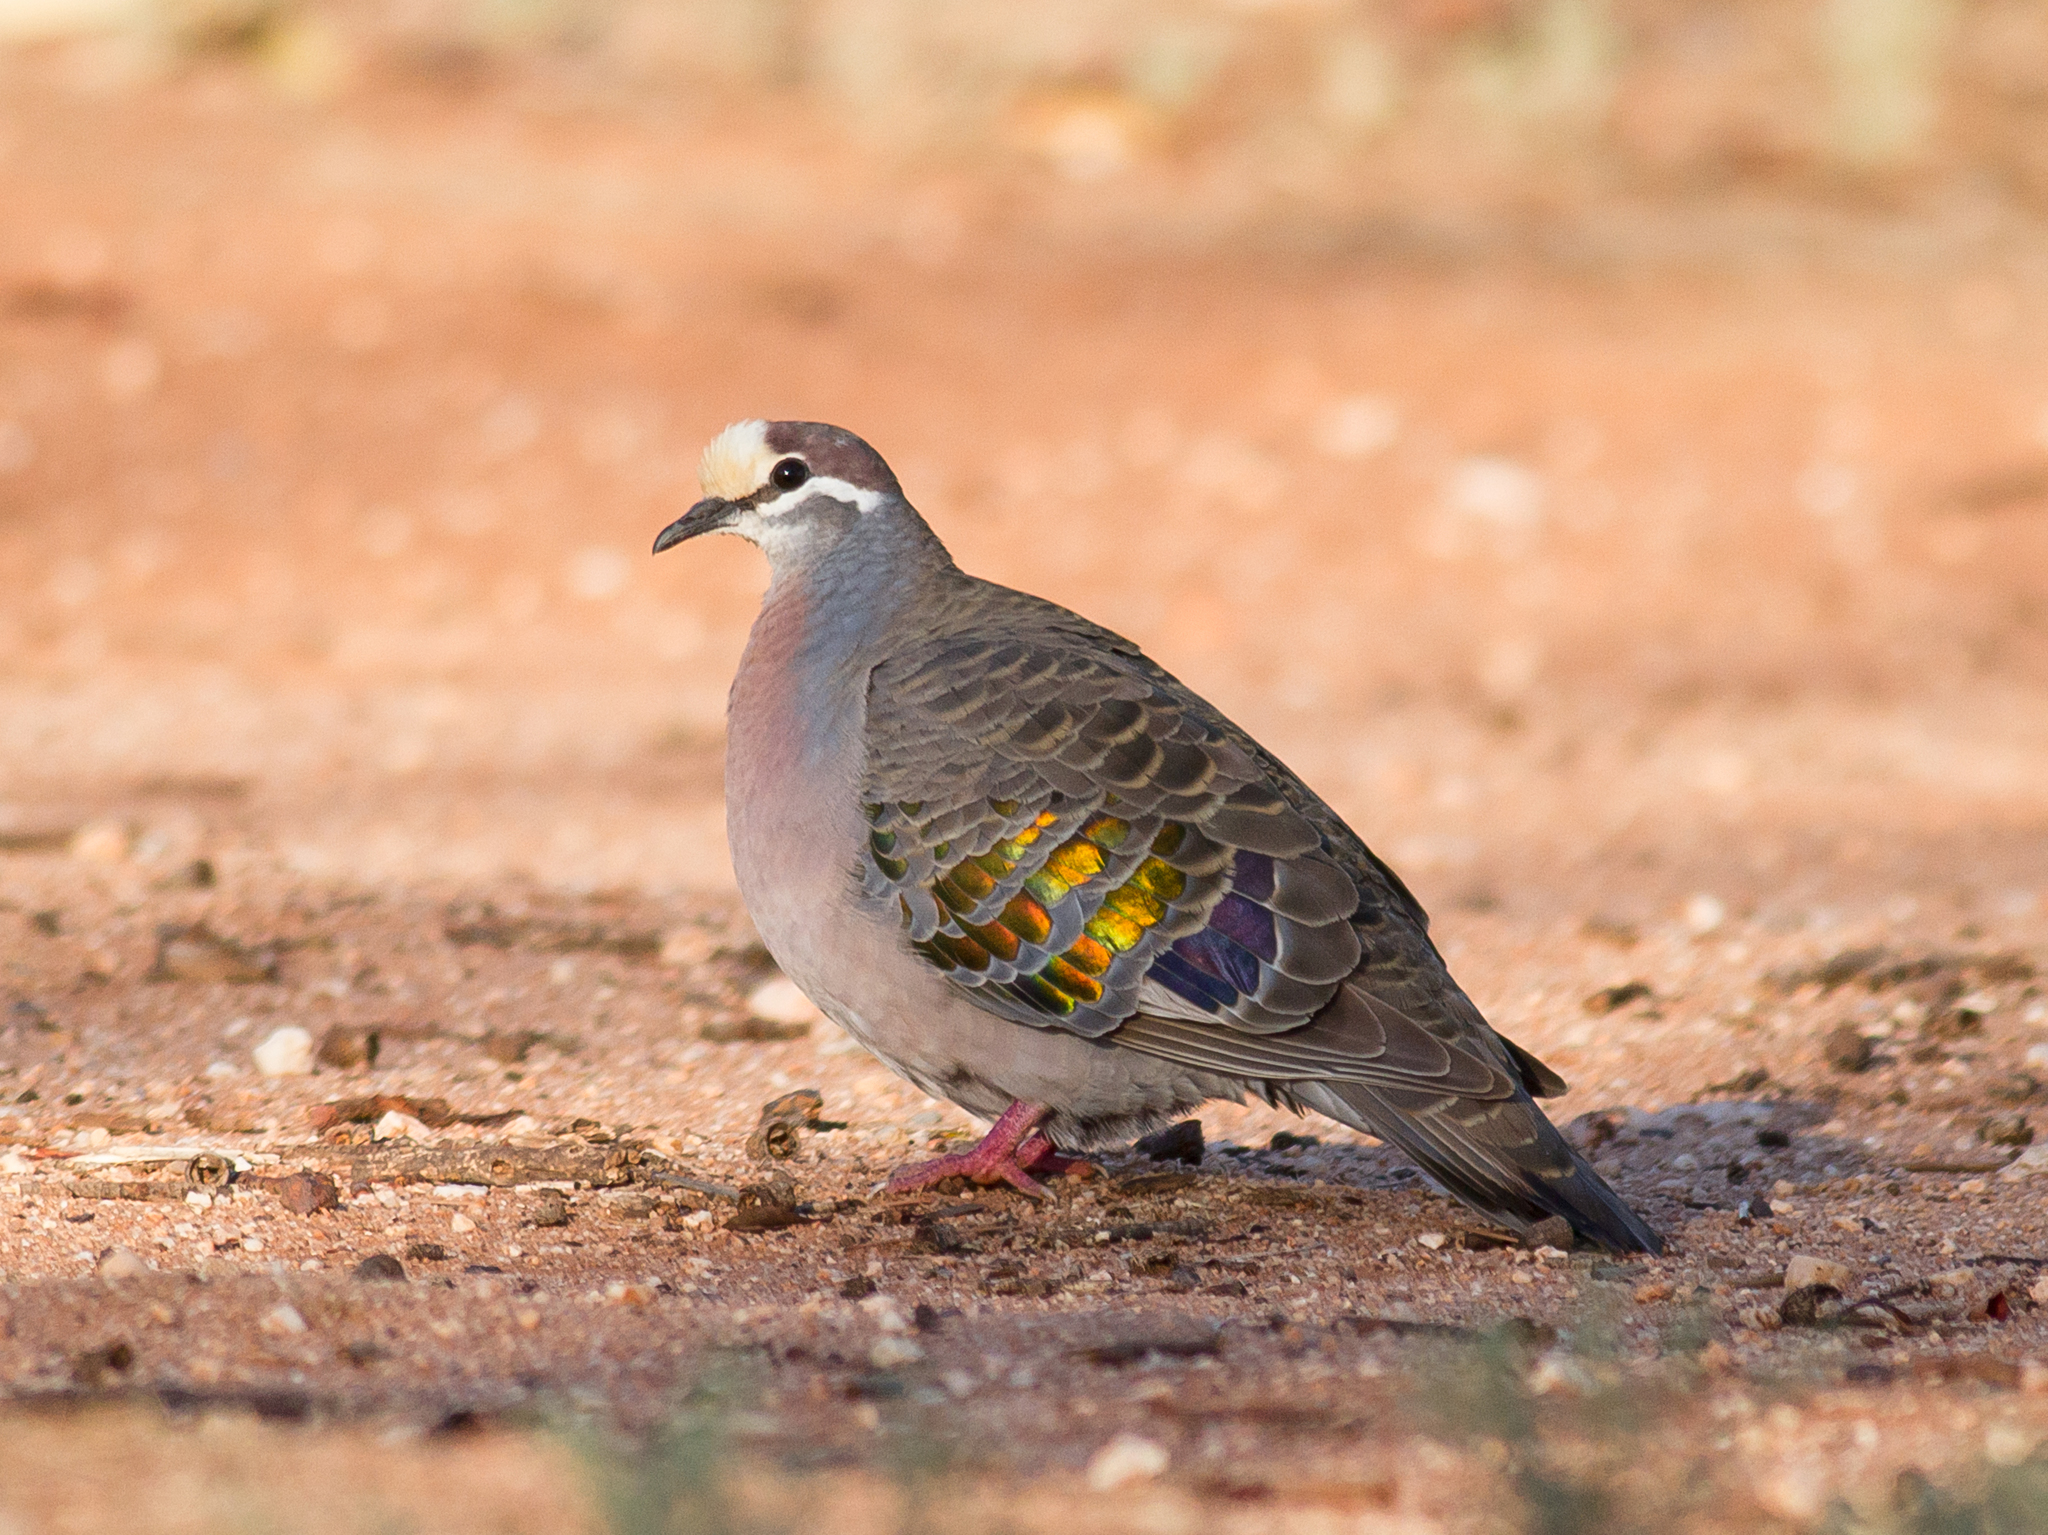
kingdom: Animalia
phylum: Chordata
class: Aves
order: Columbiformes
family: Columbidae
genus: Phaps
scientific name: Phaps chalcoptera
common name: Common bronzewing
